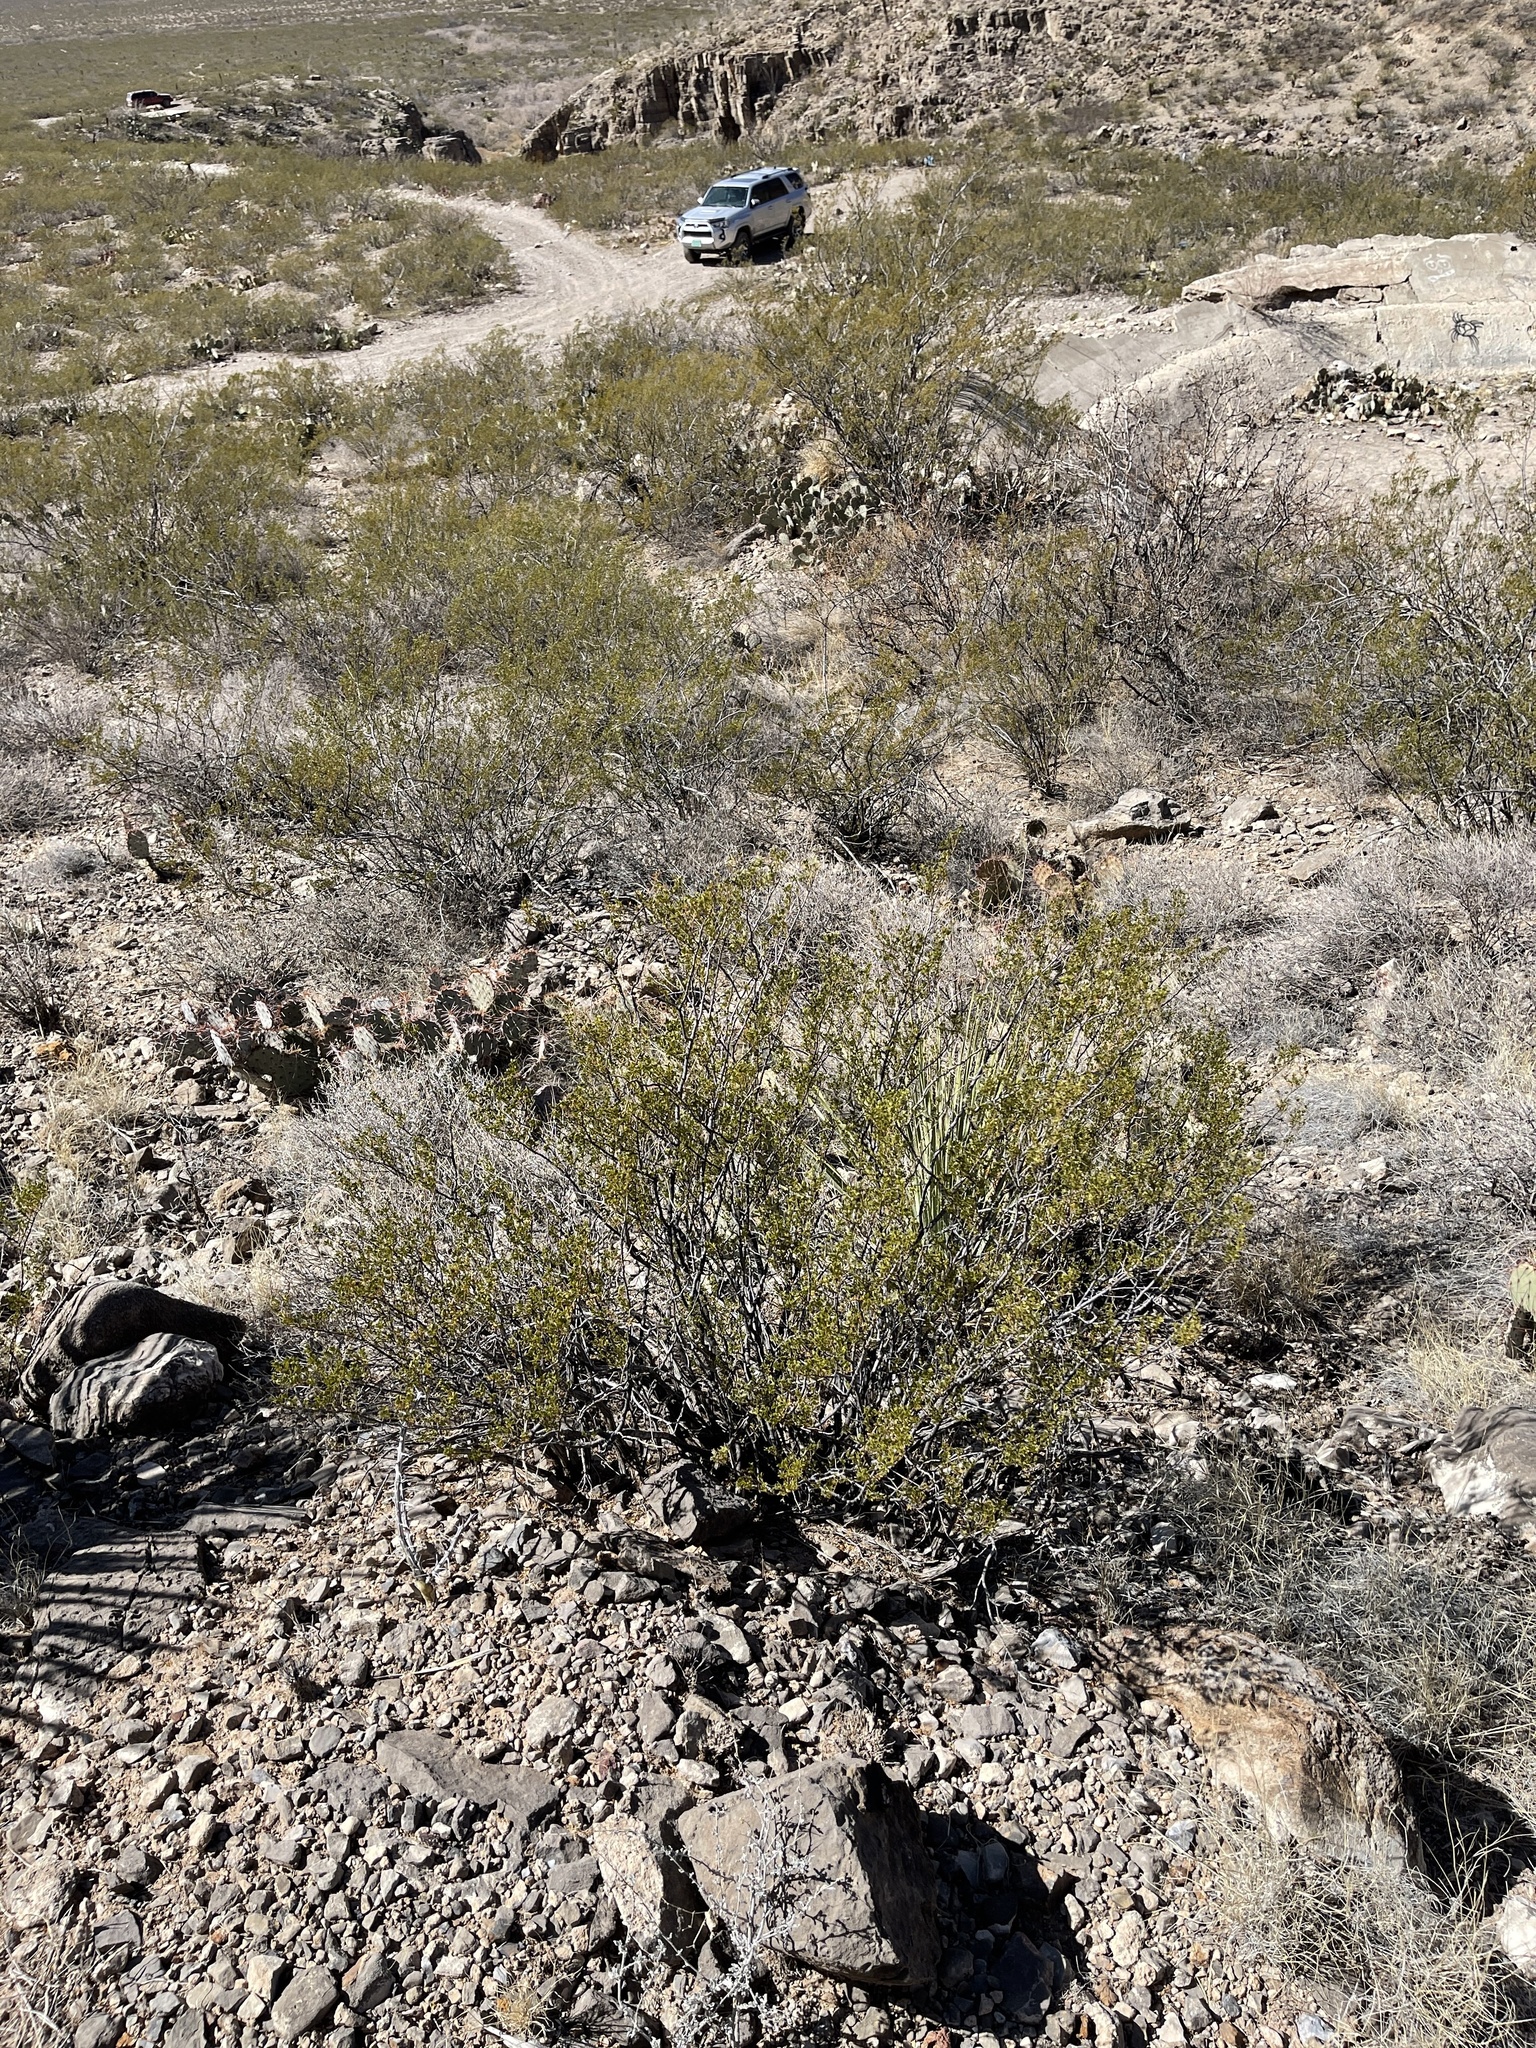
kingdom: Plantae
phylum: Tracheophyta
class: Magnoliopsida
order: Zygophyllales
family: Zygophyllaceae
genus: Larrea
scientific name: Larrea tridentata
